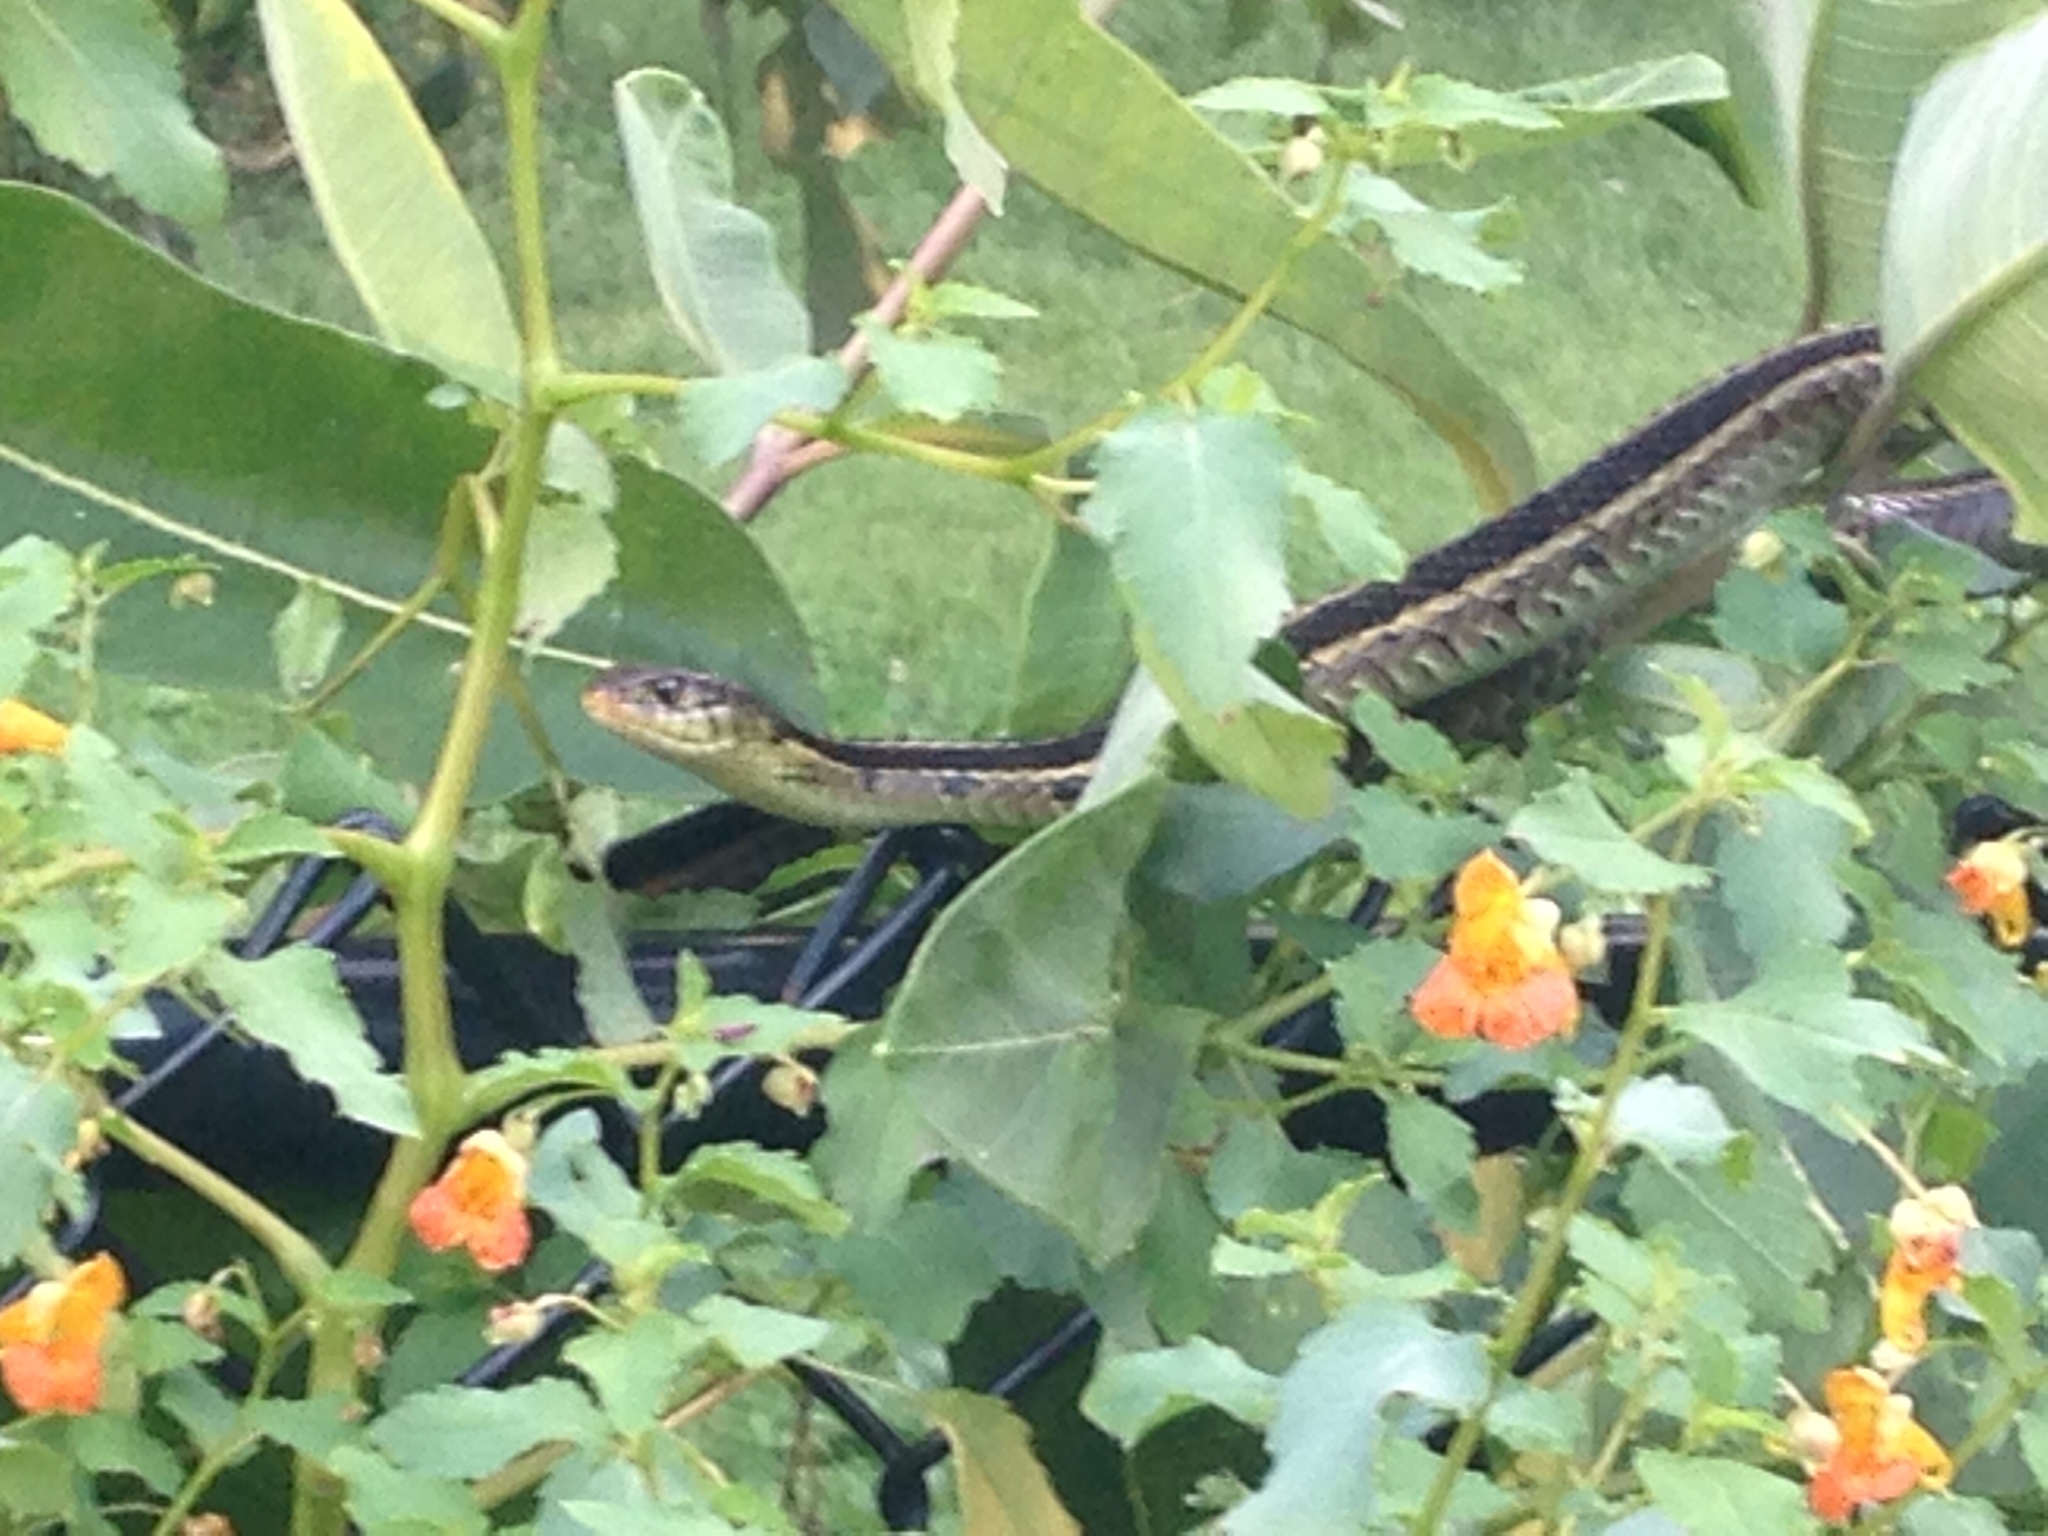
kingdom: Animalia
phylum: Chordata
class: Squamata
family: Colubridae
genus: Thamnophis
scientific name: Thamnophis sirtalis
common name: Common garter snake
